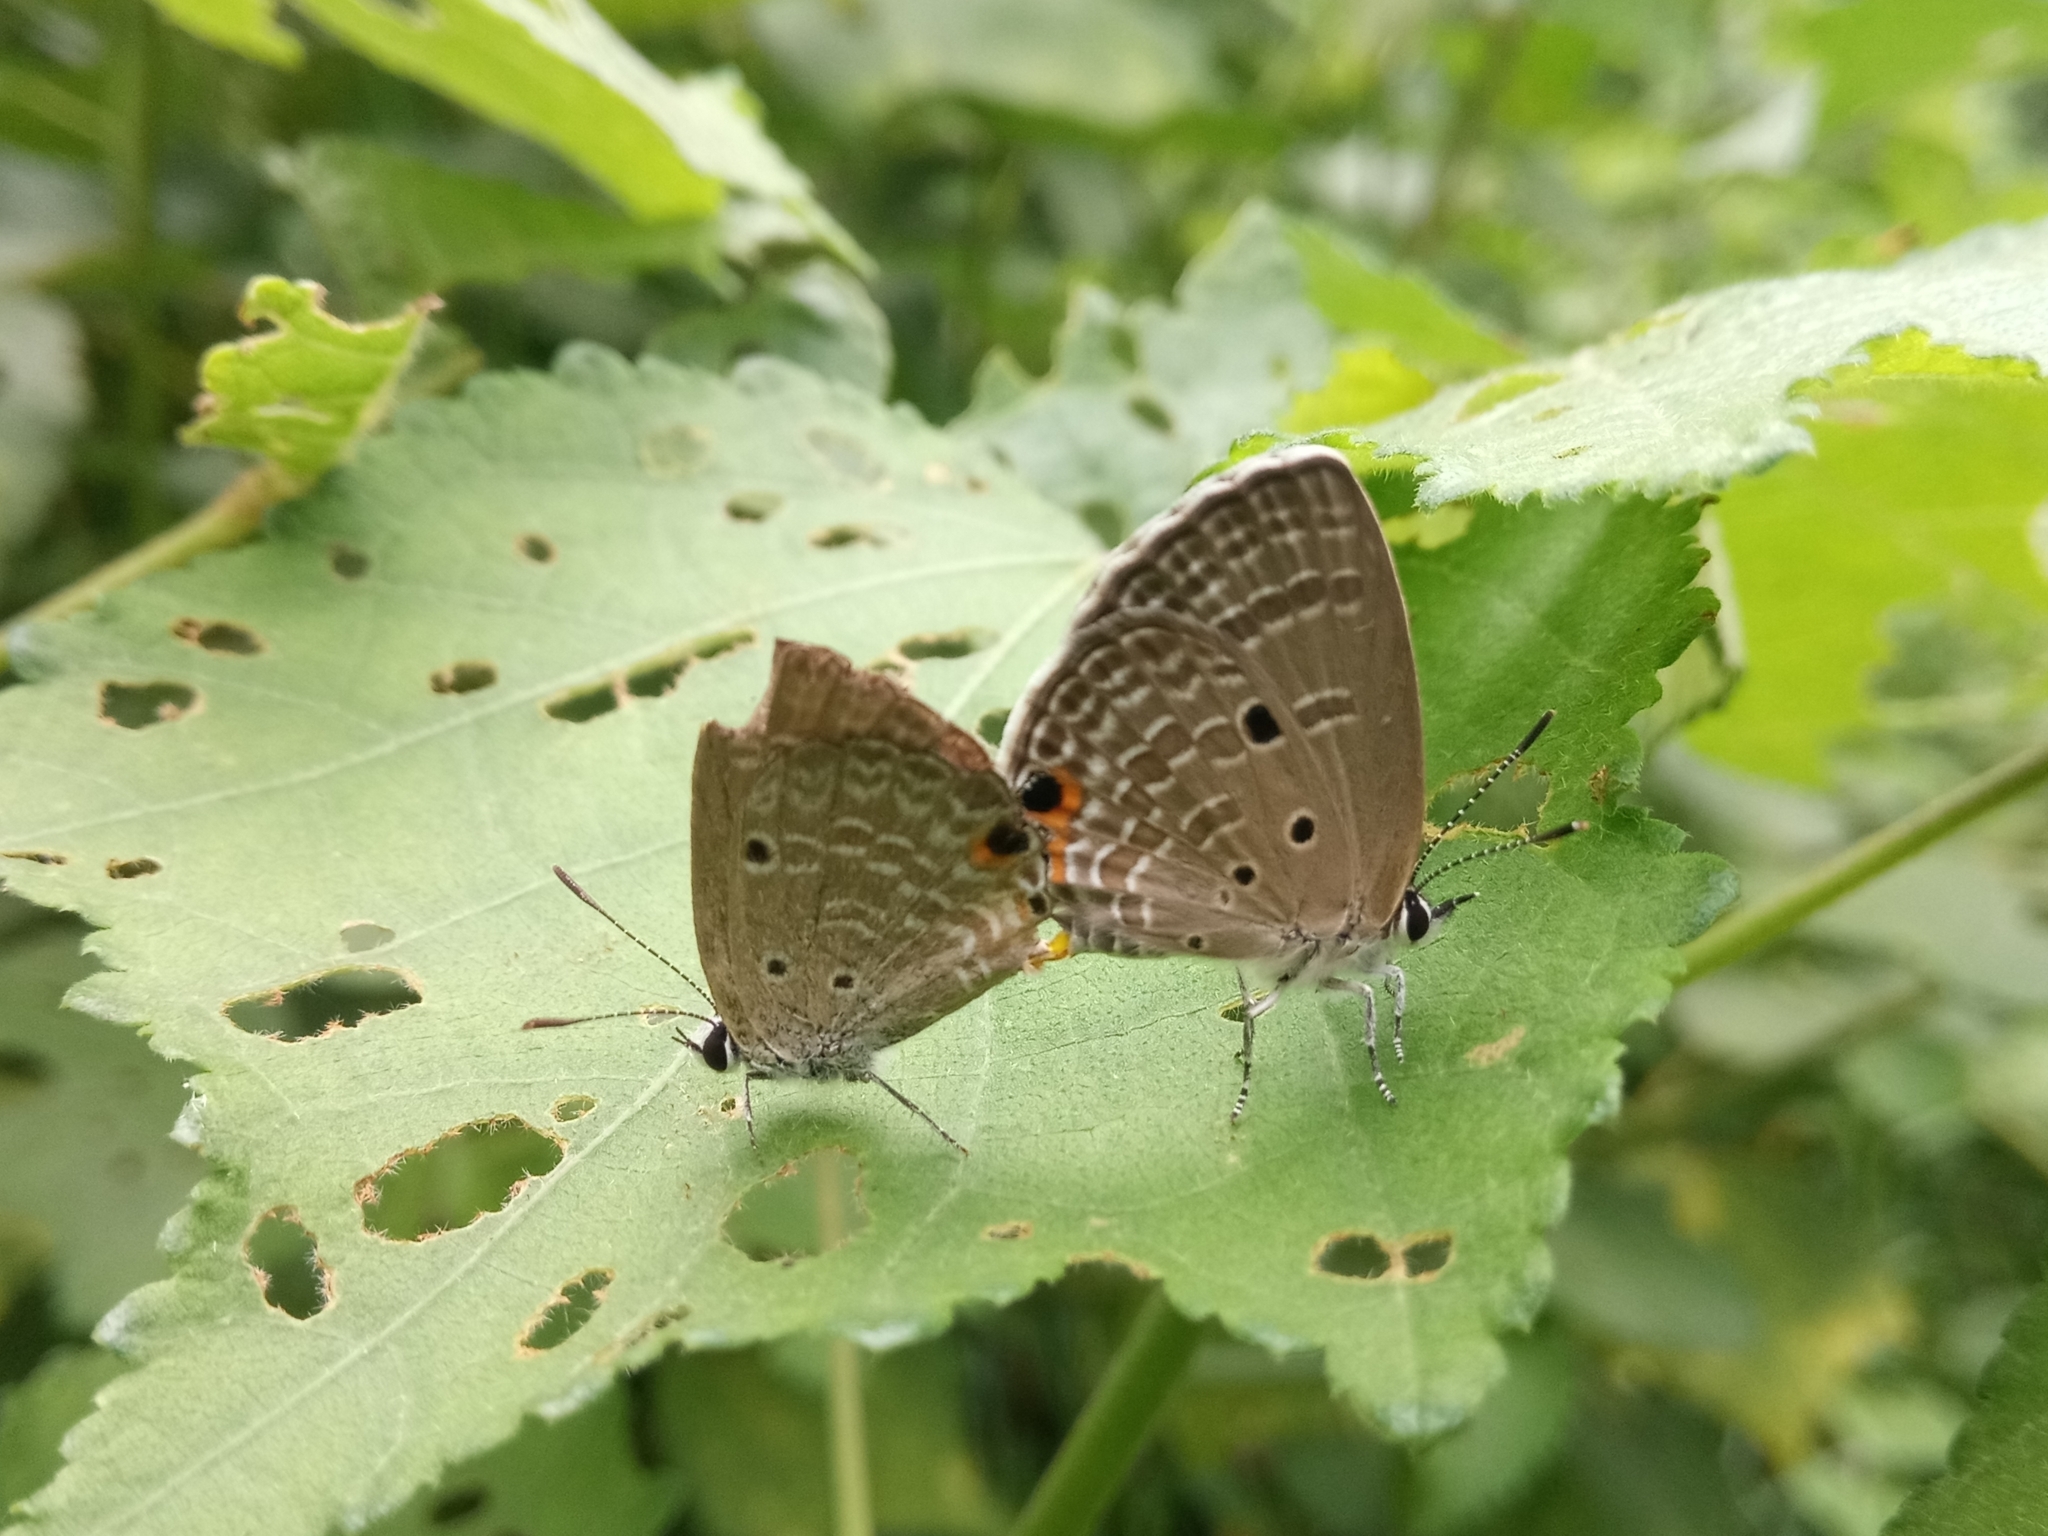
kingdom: Animalia
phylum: Arthropoda
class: Insecta
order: Lepidoptera
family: Lycaenidae
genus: Luthrodes
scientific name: Luthrodes pandava
